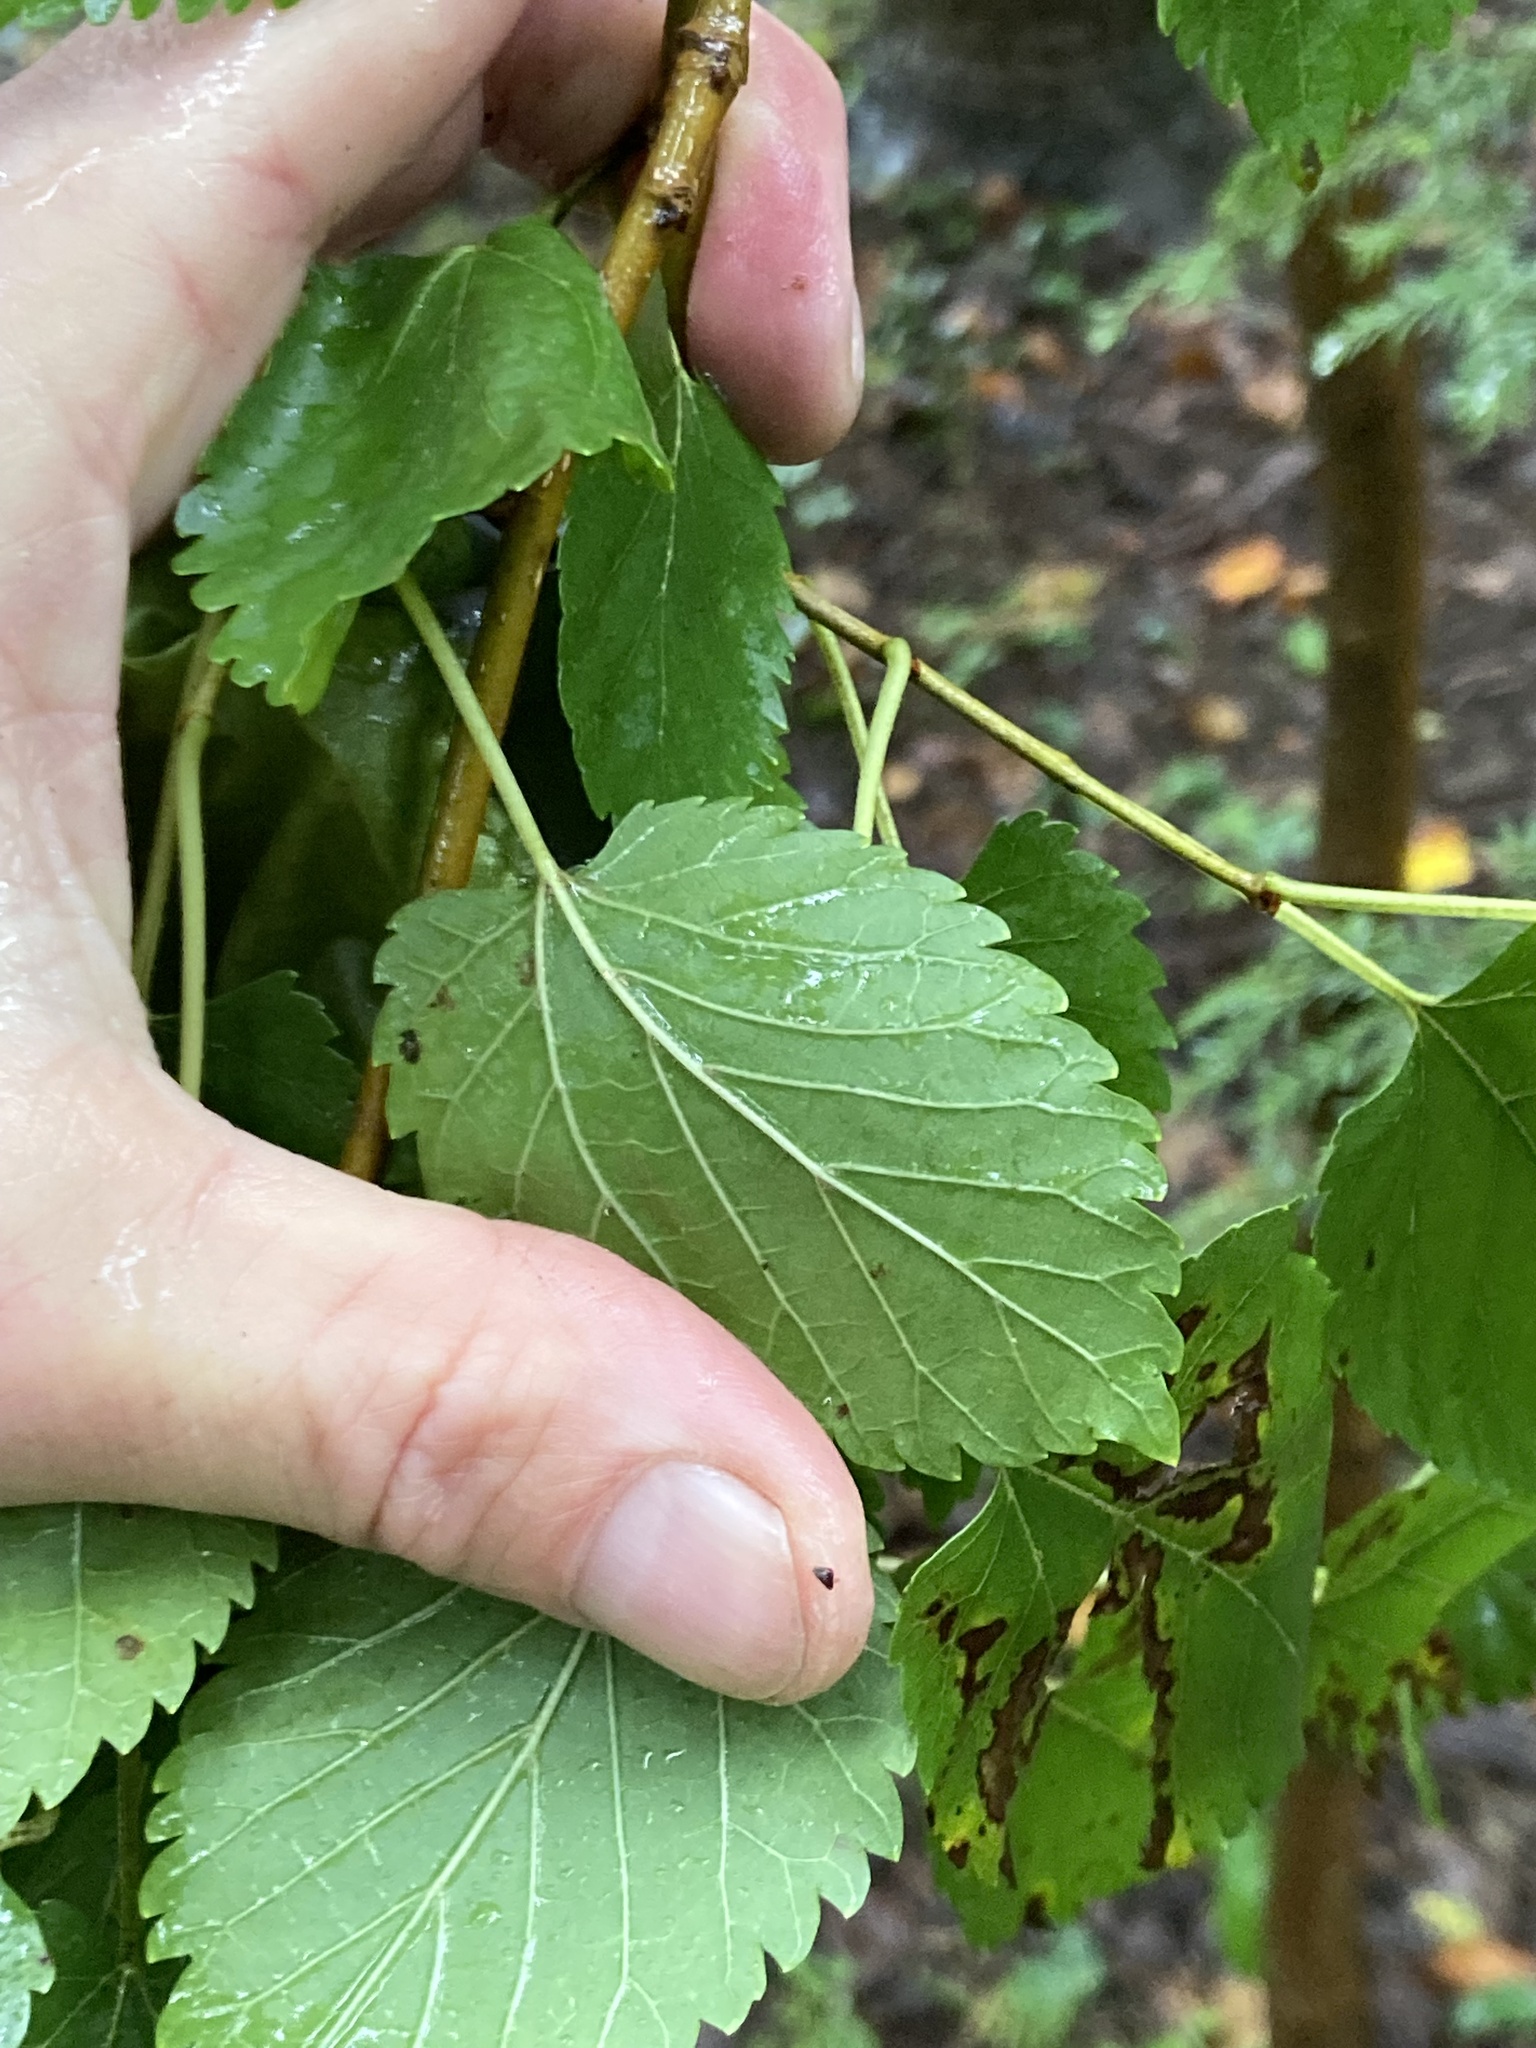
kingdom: Plantae
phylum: Tracheophyta
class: Magnoliopsida
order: Rosales
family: Moraceae
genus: Morus
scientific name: Morus alba
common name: White mulberry
